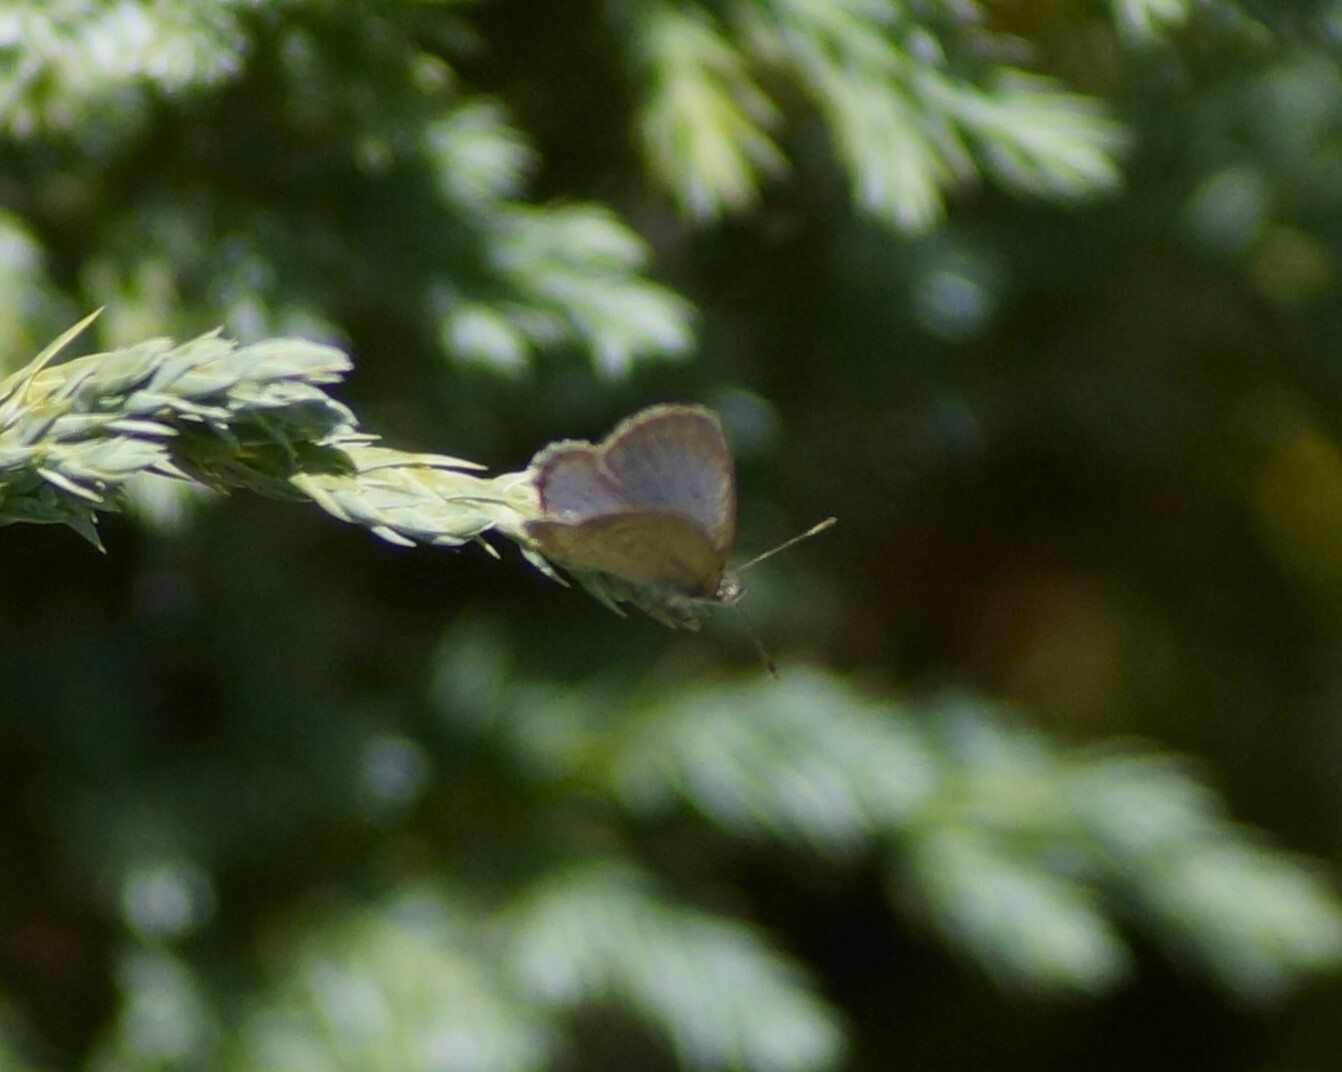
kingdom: Animalia
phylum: Arthropoda
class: Insecta
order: Lepidoptera
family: Lycaenidae
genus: Zizina
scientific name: Zizina labradus
